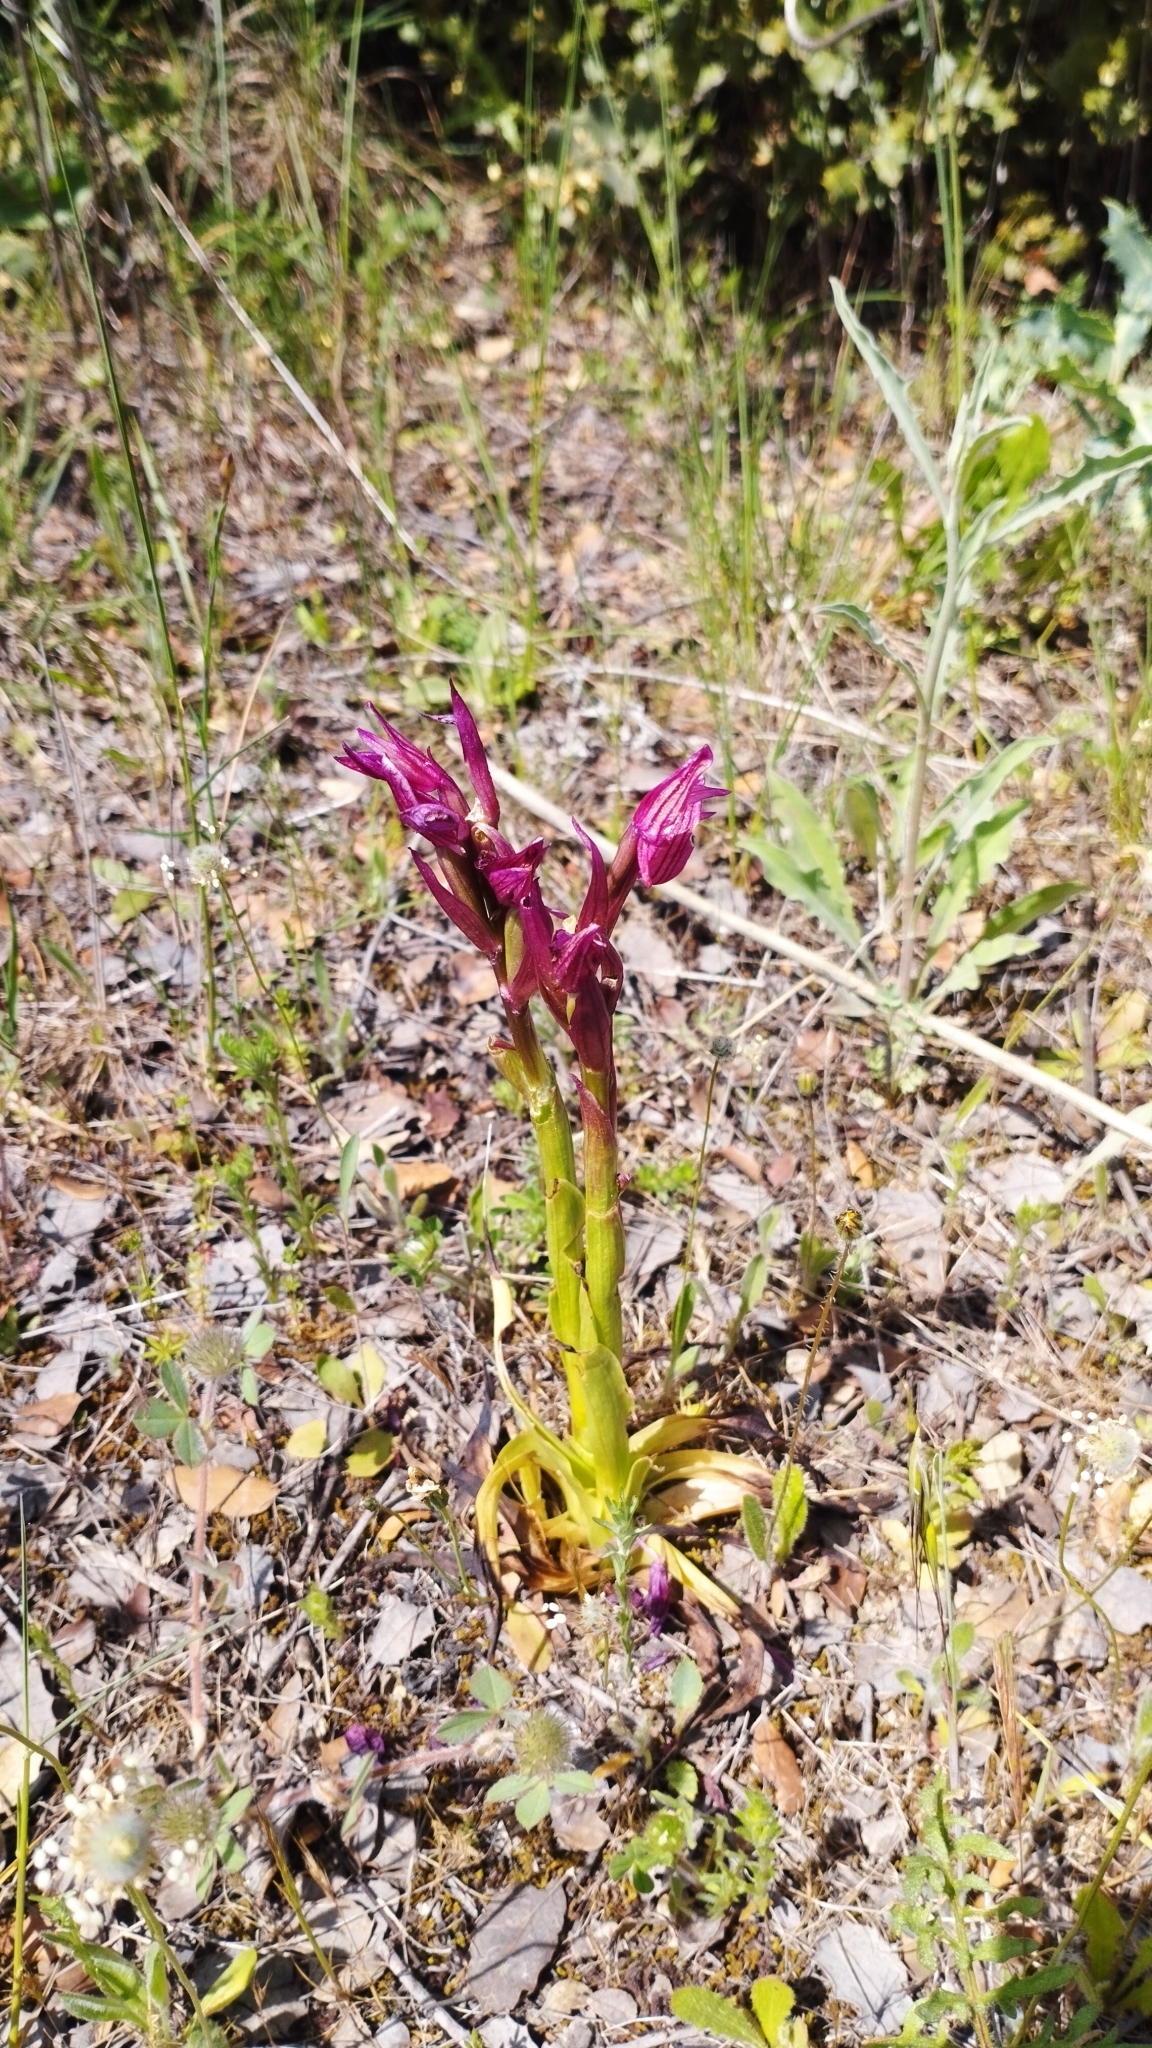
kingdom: Plantae
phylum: Tracheophyta
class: Liliopsida
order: Asparagales
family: Orchidaceae
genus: Anacamptis
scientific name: Anacamptis papilionacea
